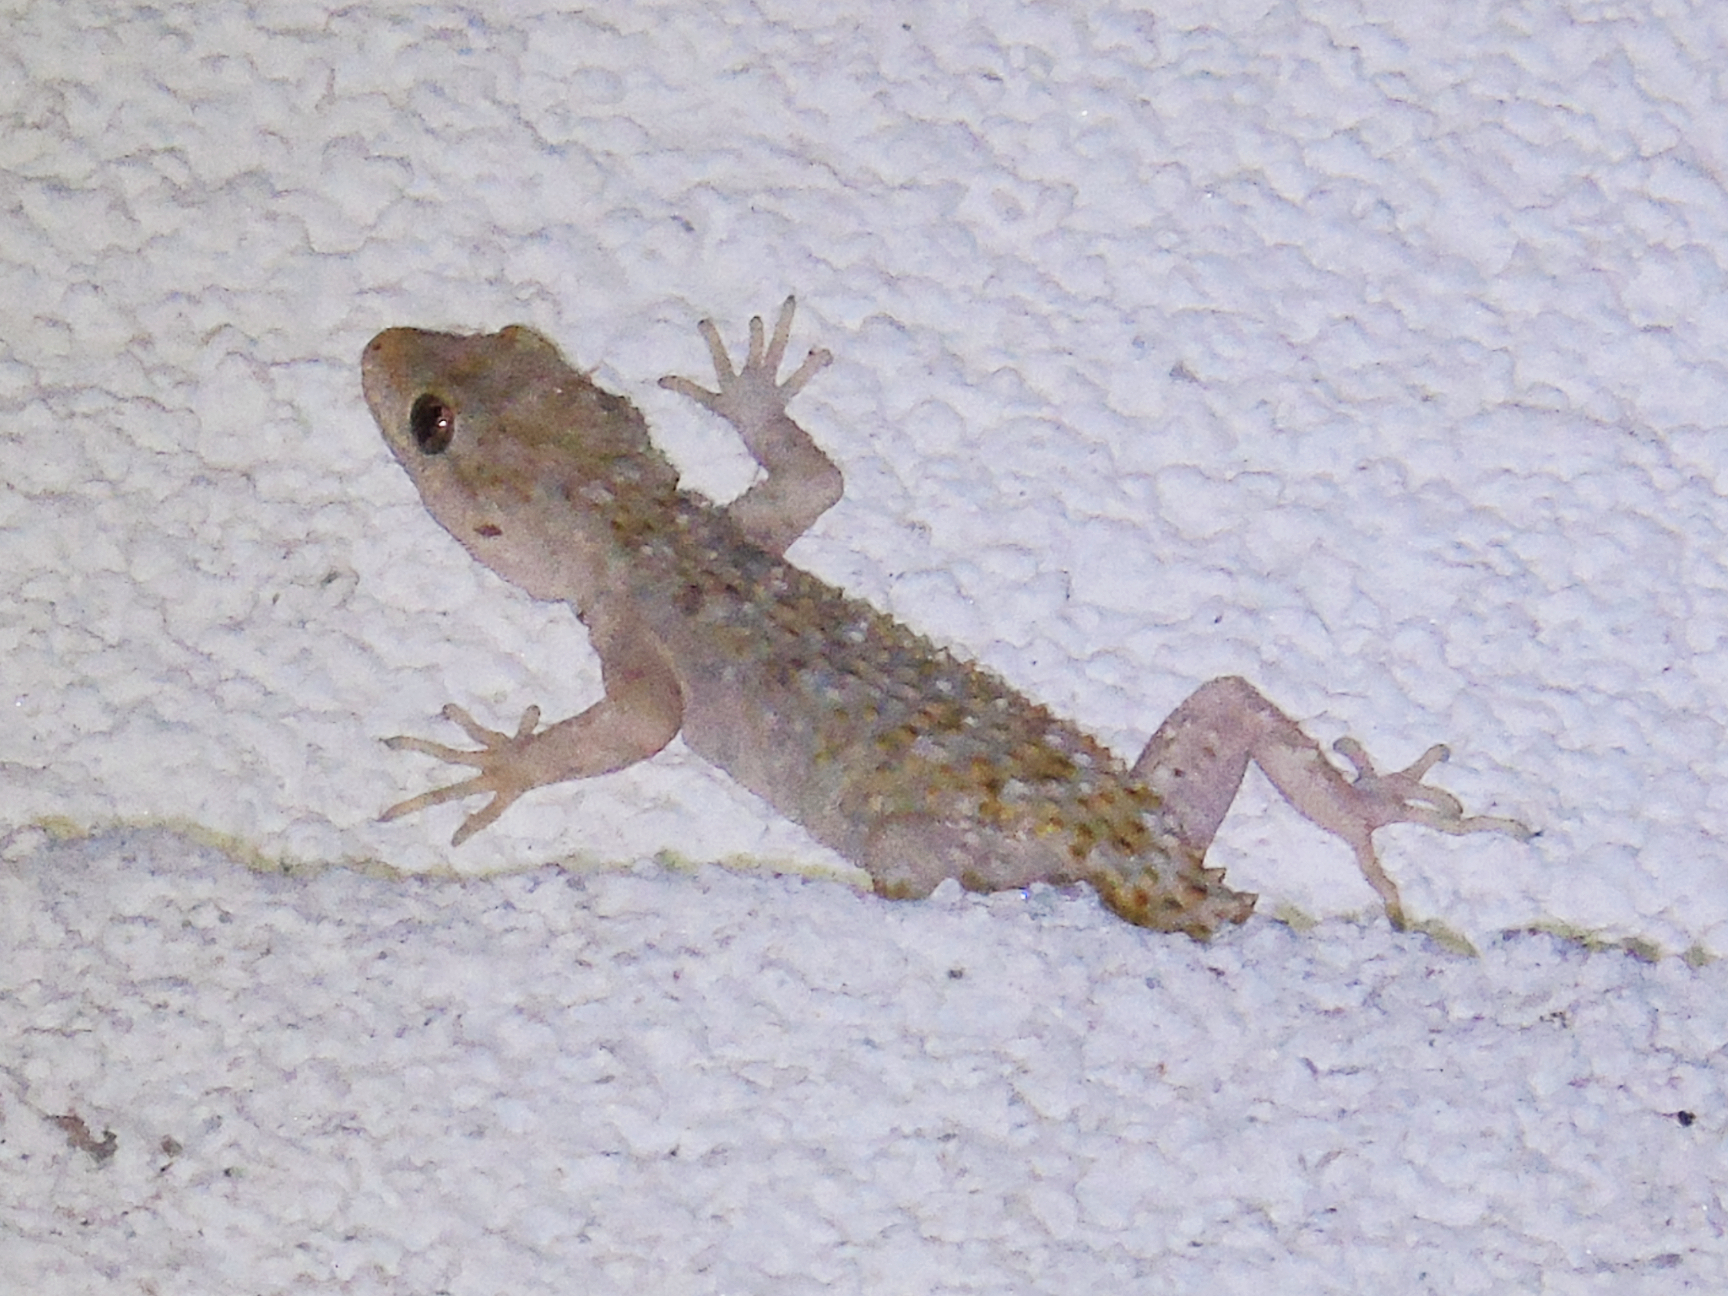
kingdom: Animalia
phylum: Chordata
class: Squamata
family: Gekkonidae
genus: Mediodactylus
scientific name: Mediodactylus kotschyi
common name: Kotschy's gecko
